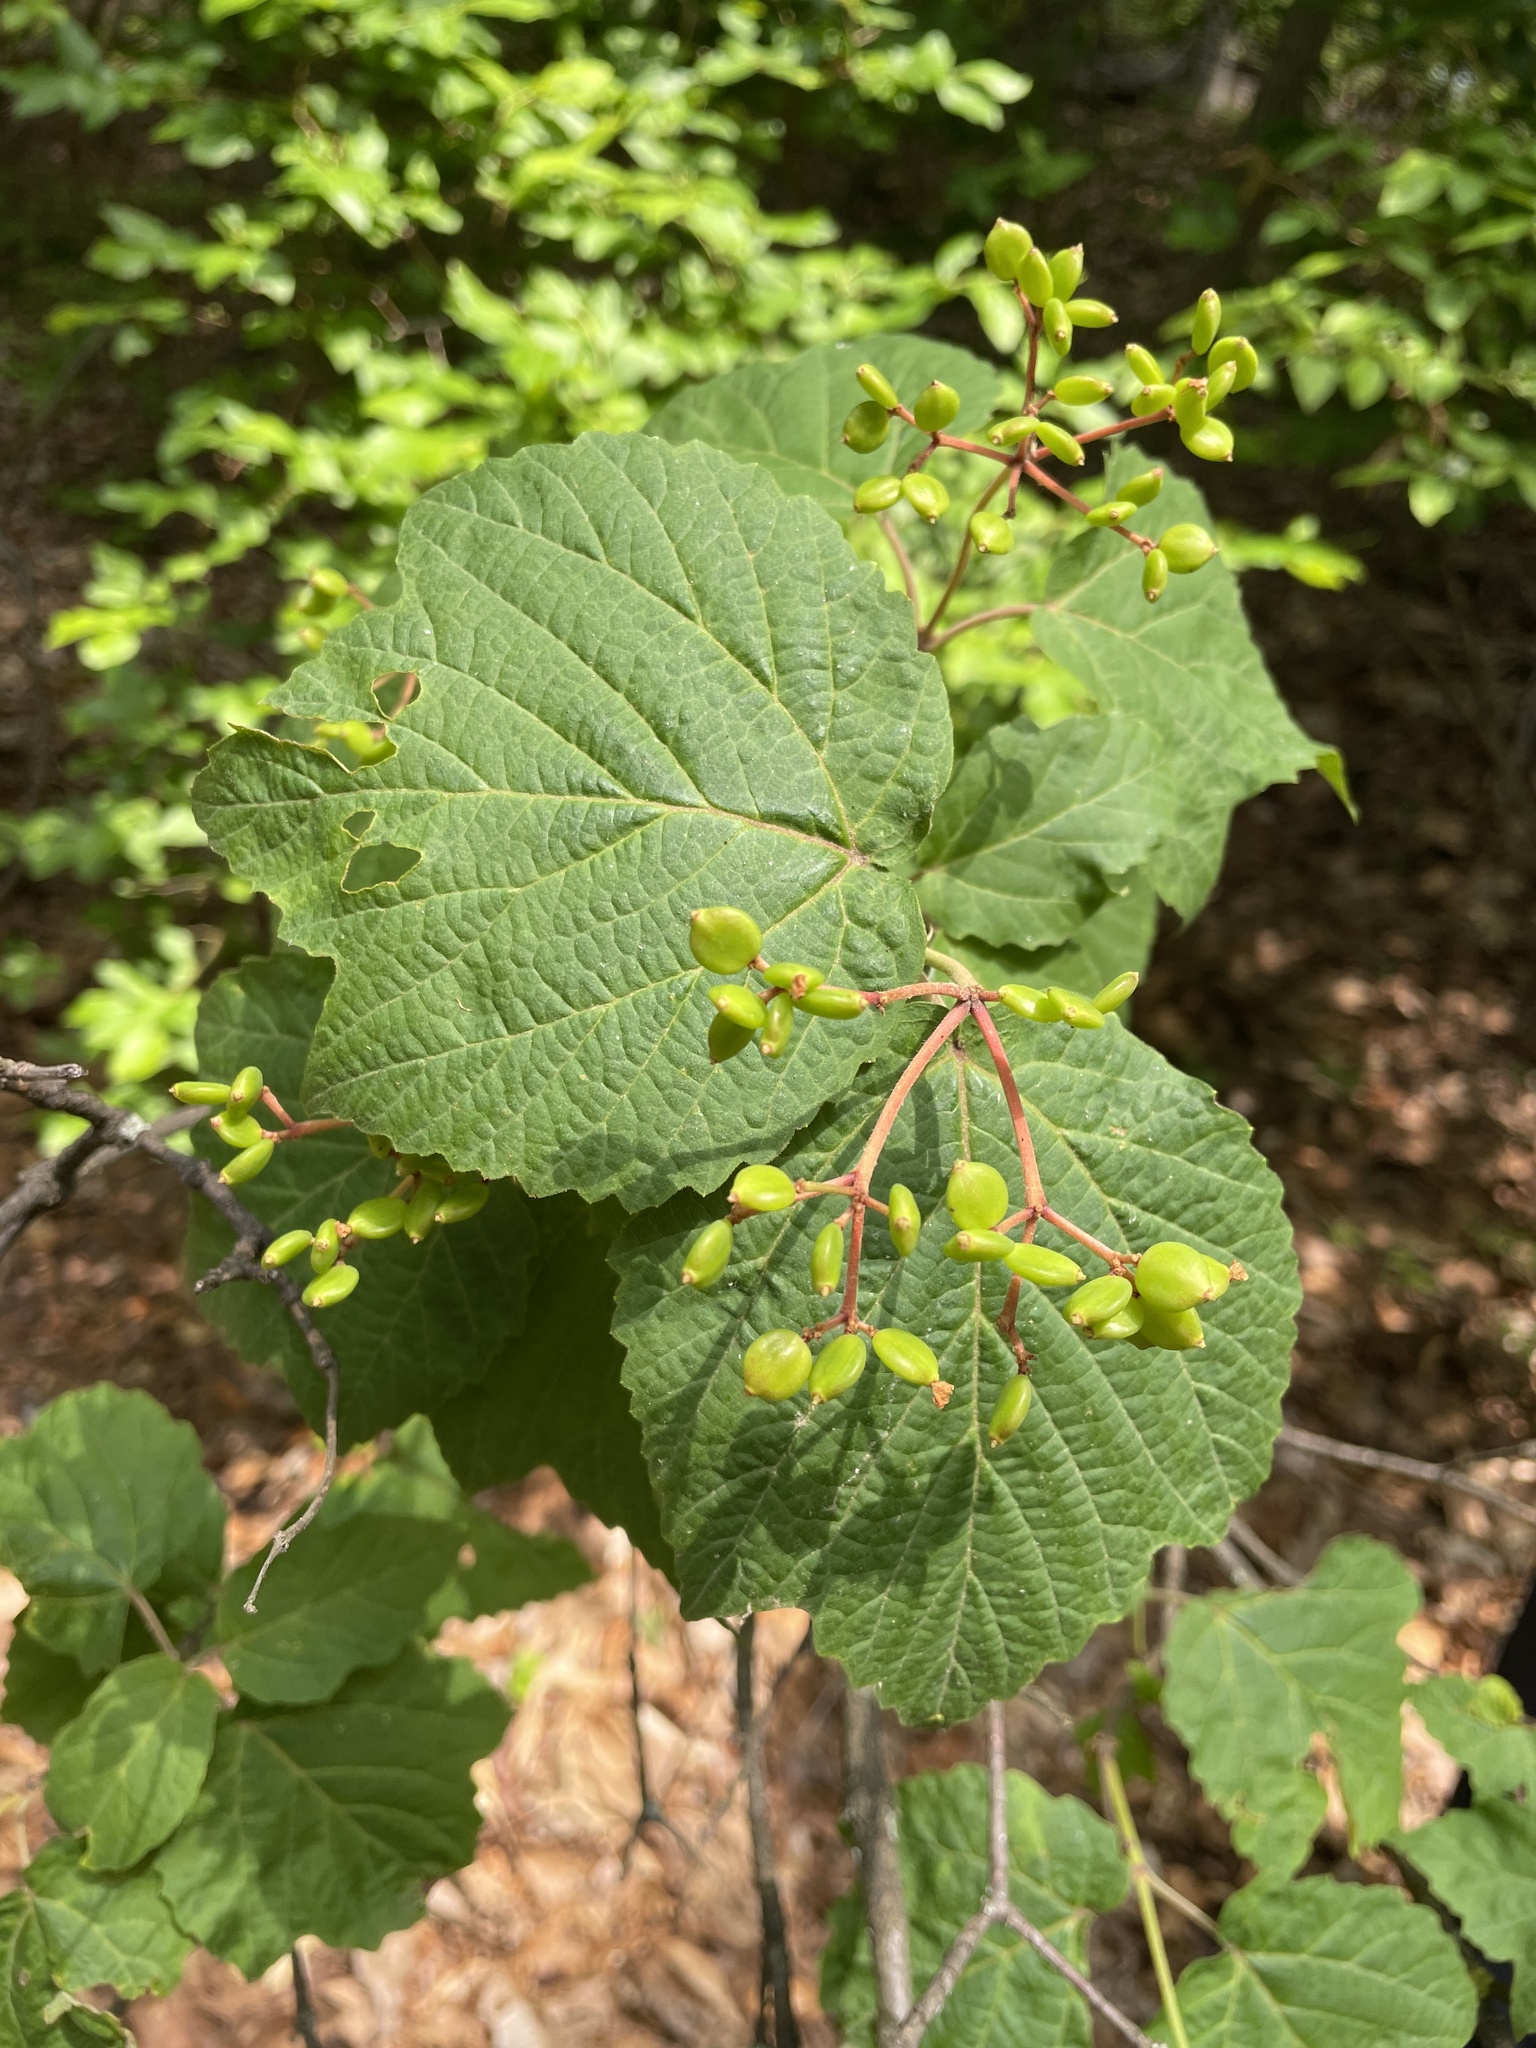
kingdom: Plantae
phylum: Tracheophyta
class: Magnoliopsida
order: Dipsacales
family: Viburnaceae
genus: Viburnum
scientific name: Viburnum acerifolium
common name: Dockmackie
